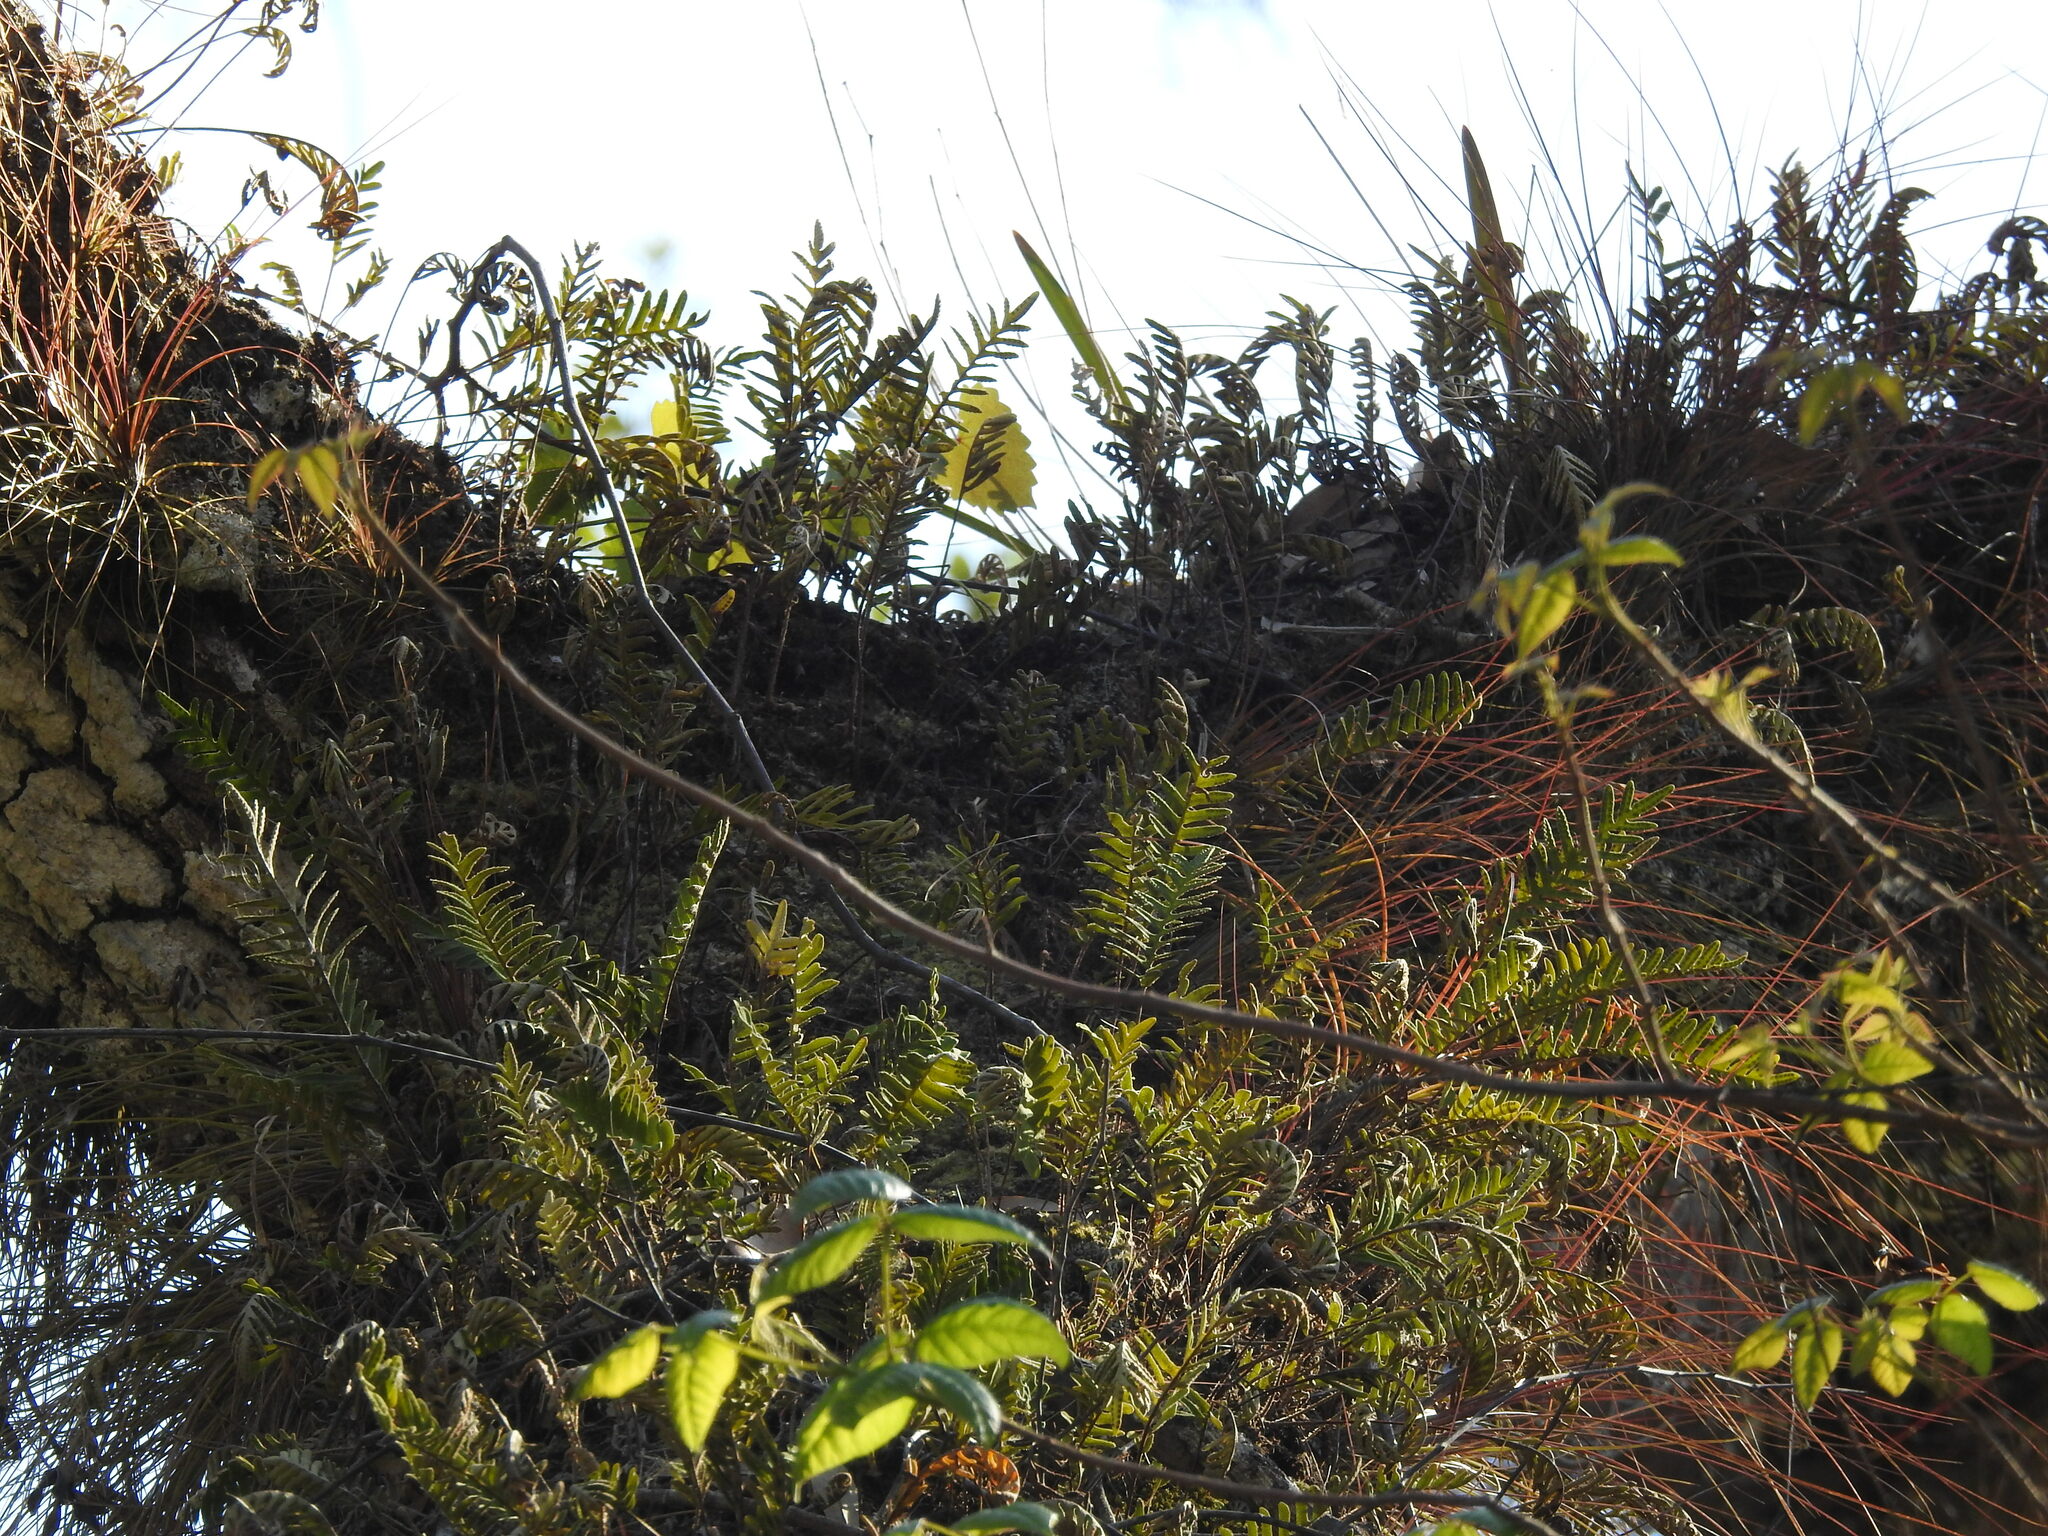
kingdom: Plantae
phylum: Tracheophyta
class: Polypodiopsida
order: Polypodiales
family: Polypodiaceae
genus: Pleopeltis
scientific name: Pleopeltis michauxiana
